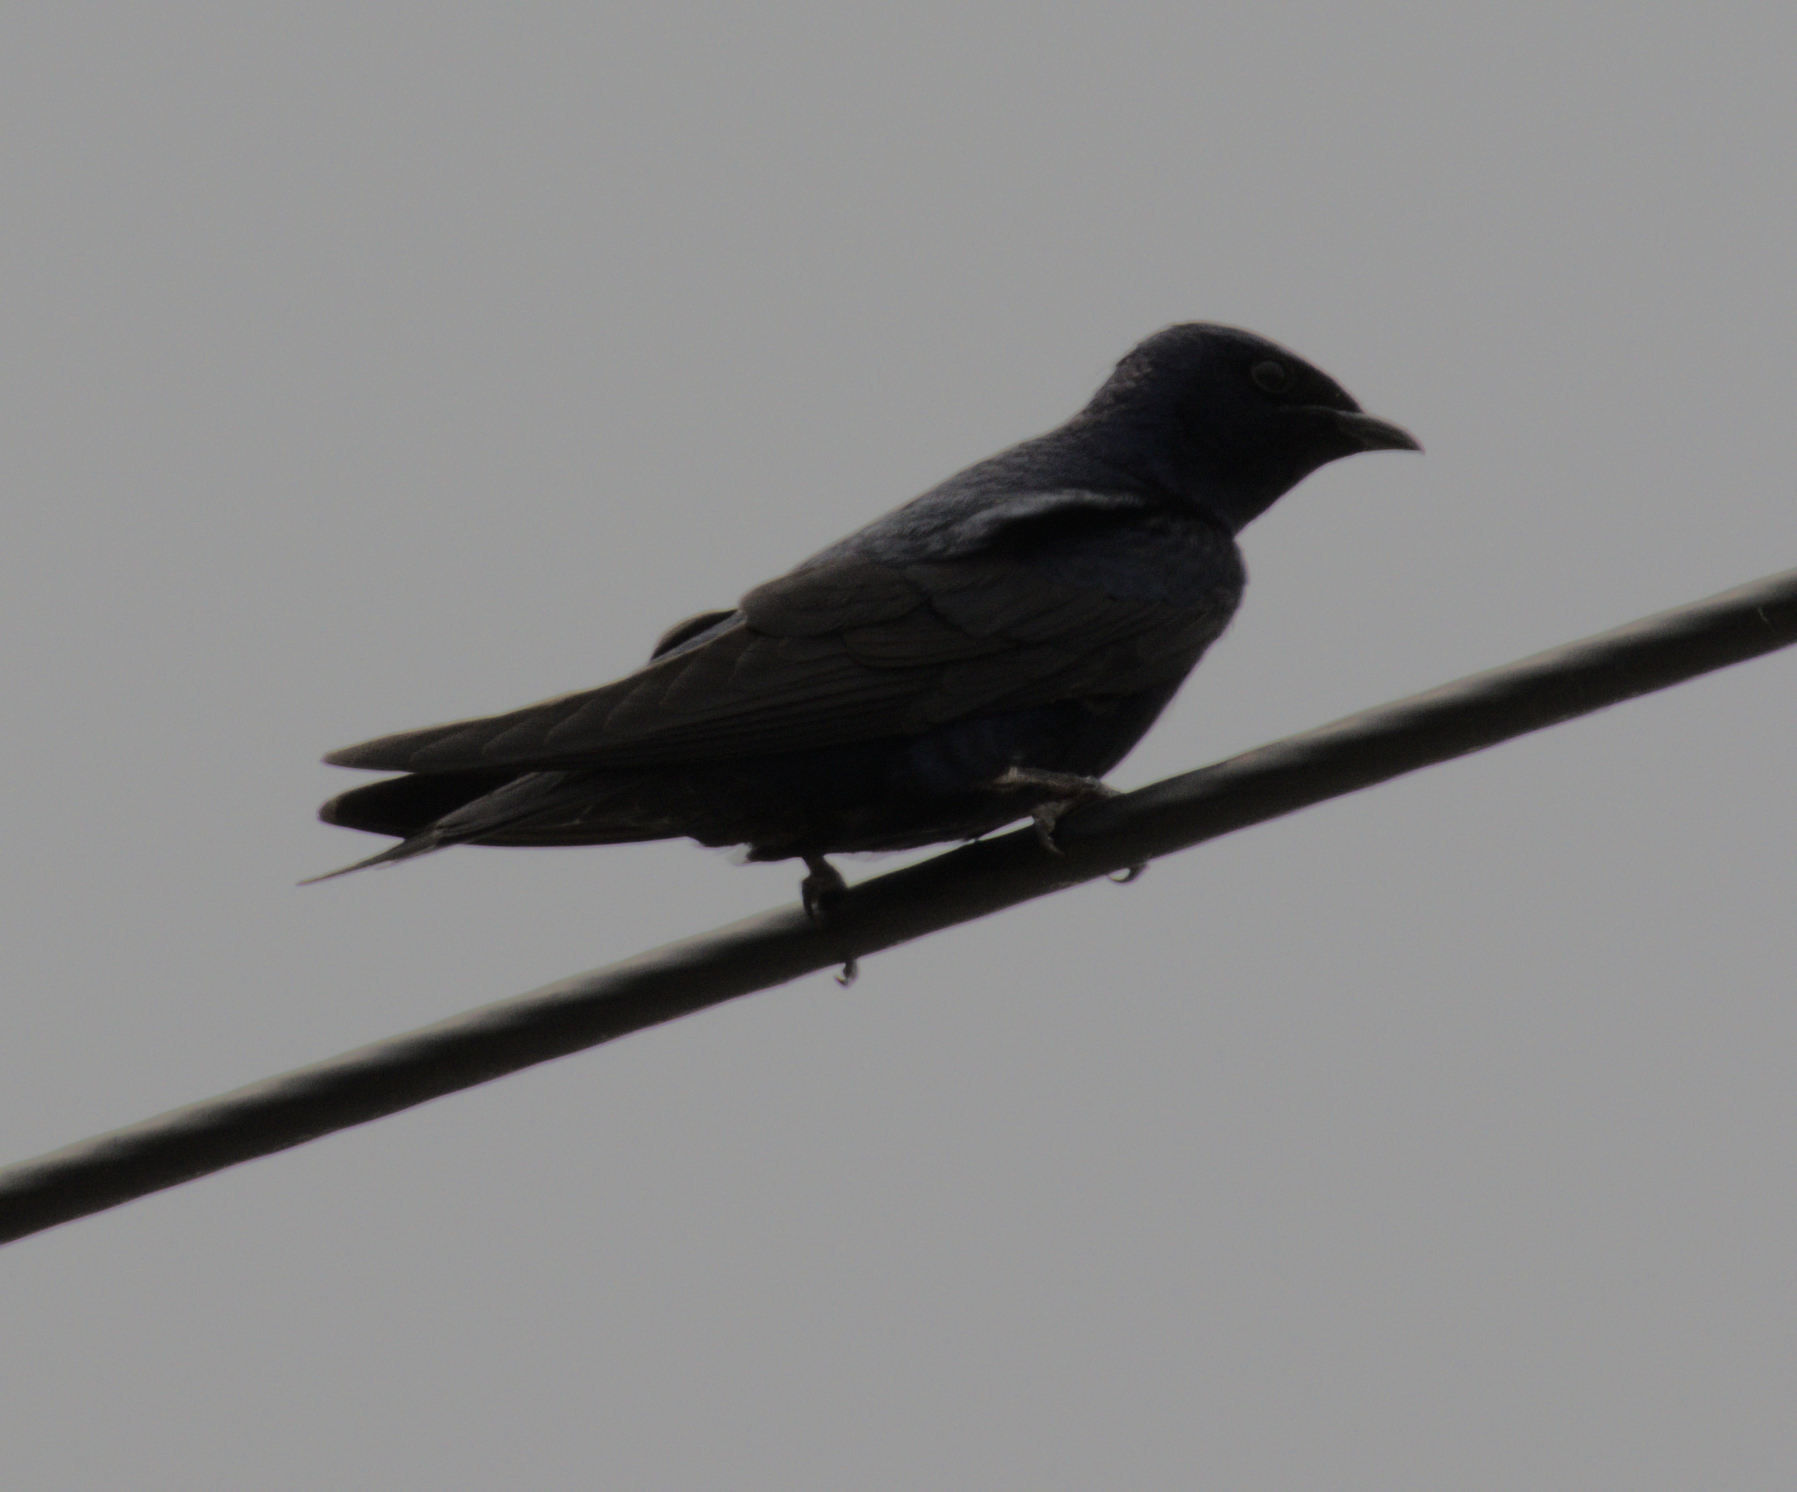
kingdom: Animalia
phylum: Chordata
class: Aves
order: Passeriformes
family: Hirundinidae
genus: Progne
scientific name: Progne subis
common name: Purple martin
